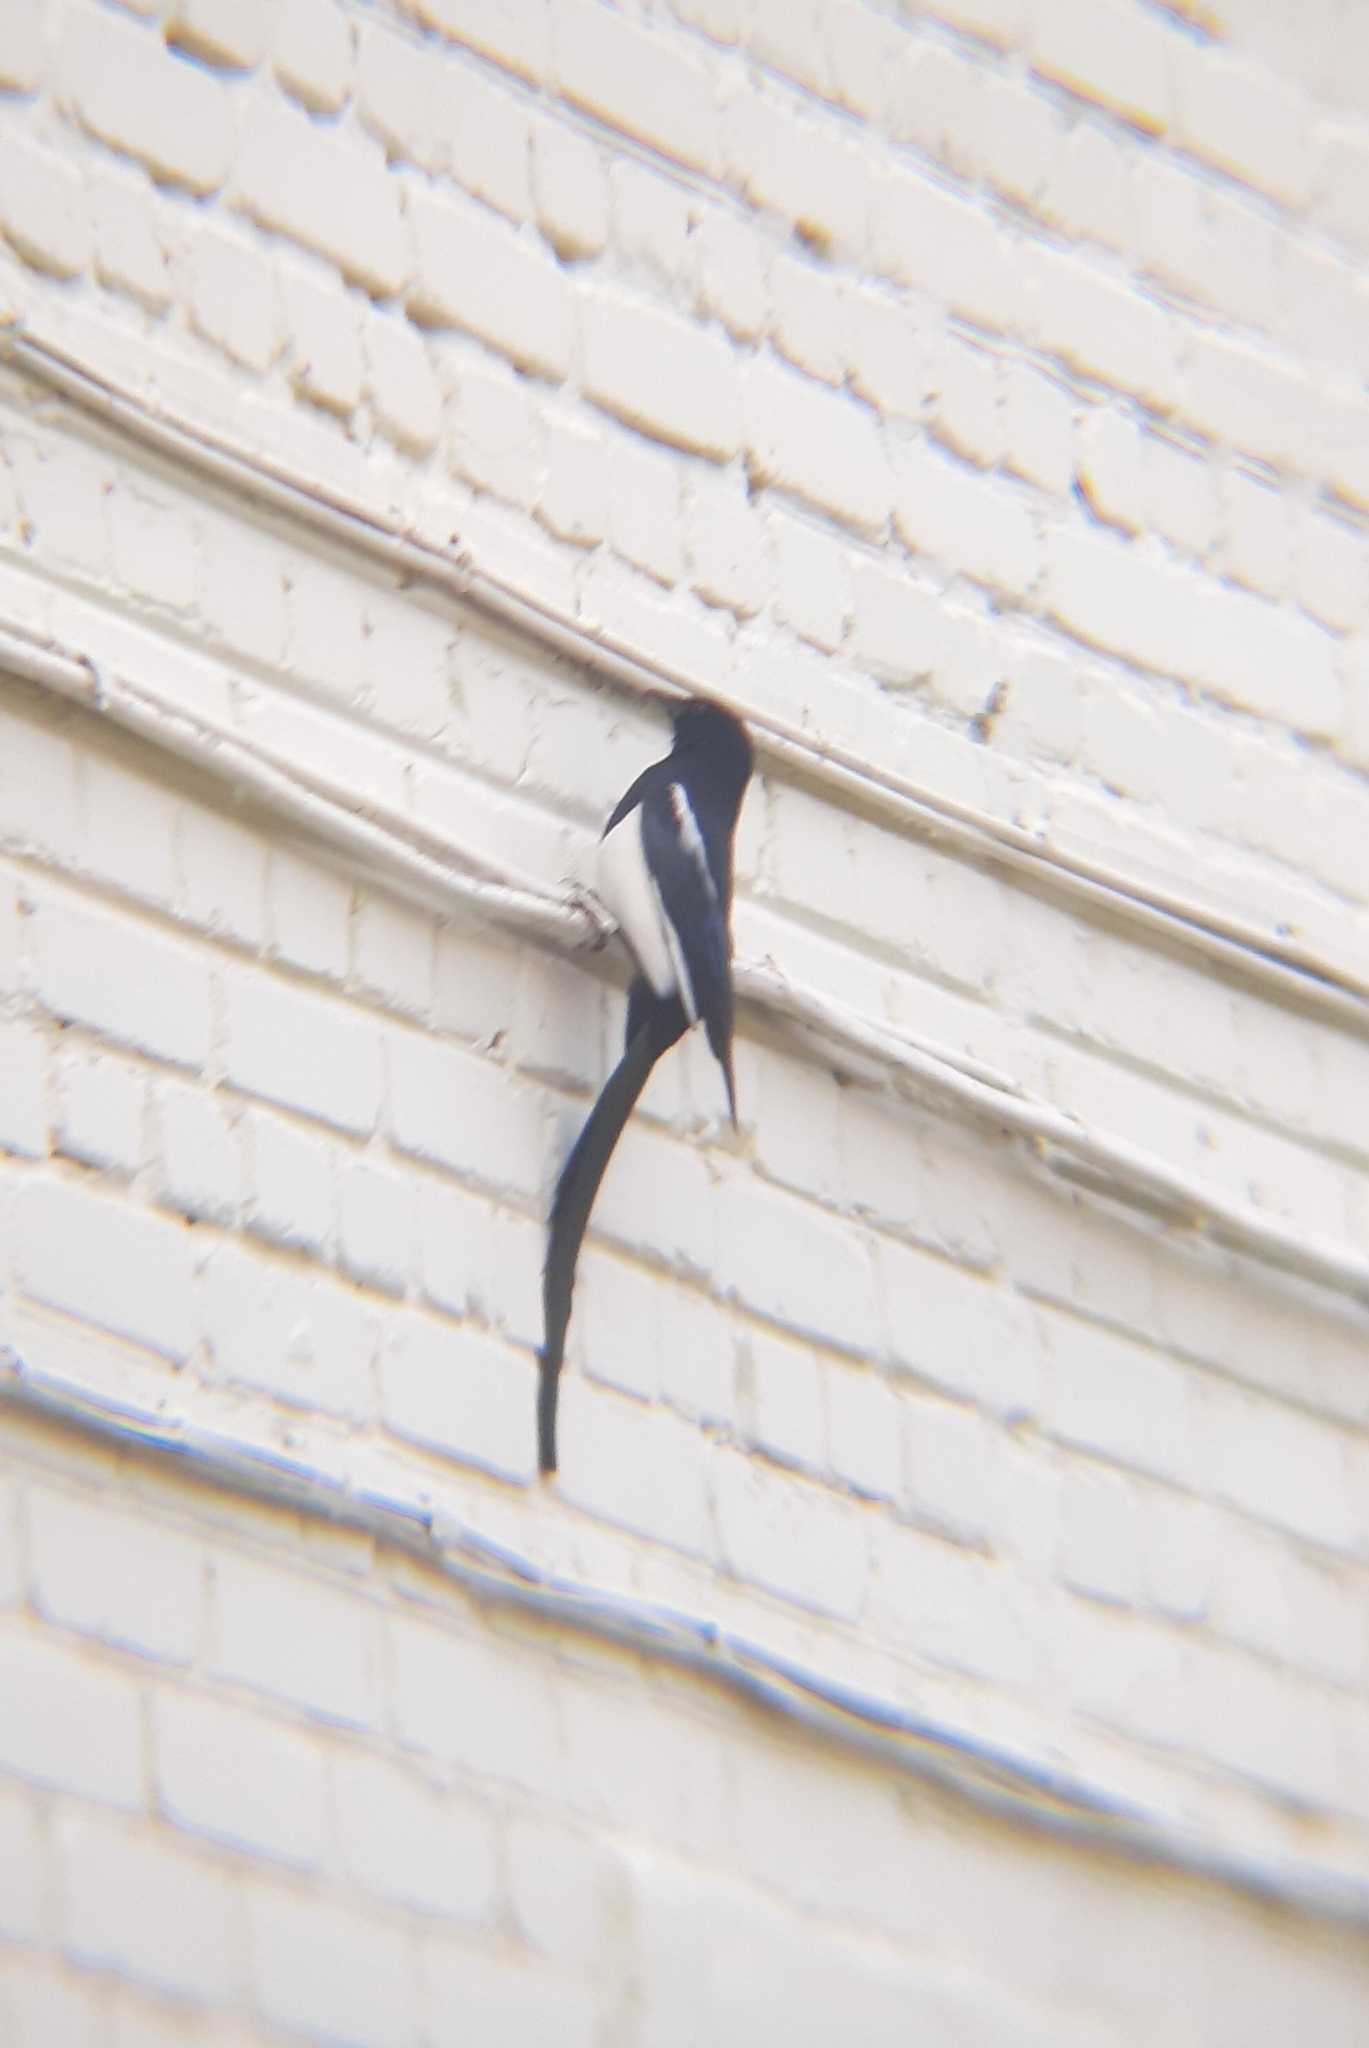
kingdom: Animalia
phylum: Chordata
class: Aves
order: Passeriformes
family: Corvidae
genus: Pica
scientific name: Pica pica
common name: Eurasian magpie
